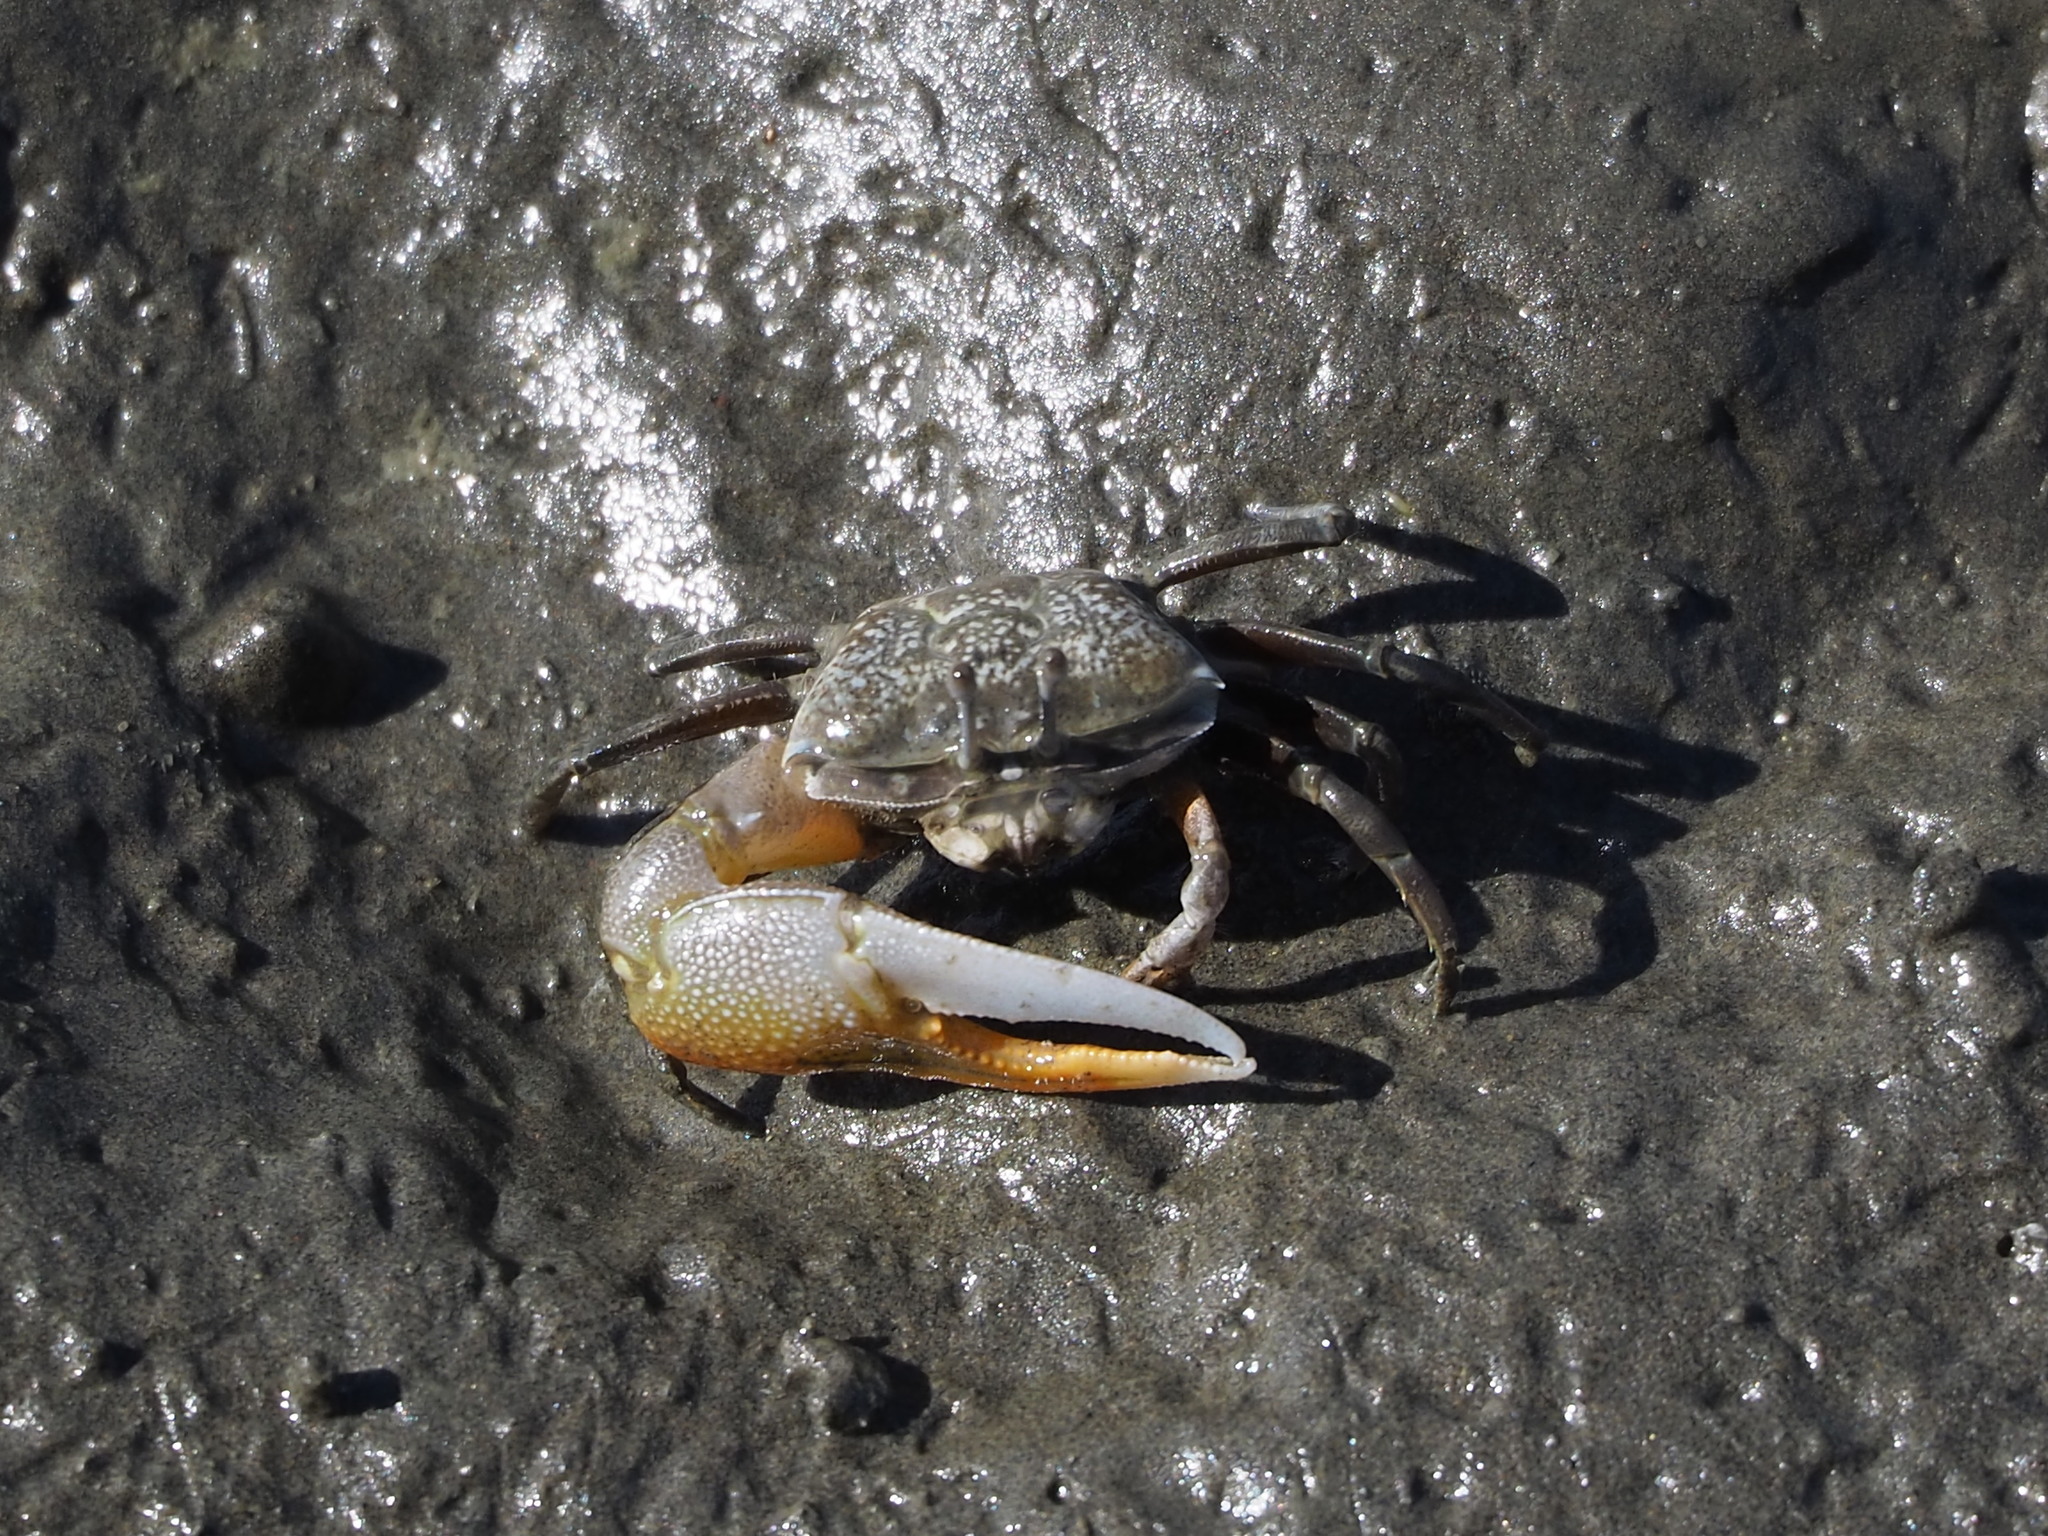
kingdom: Animalia
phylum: Arthropoda
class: Malacostraca
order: Decapoda
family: Ocypodidae
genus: Gelasimus
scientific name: Gelasimus borealis
